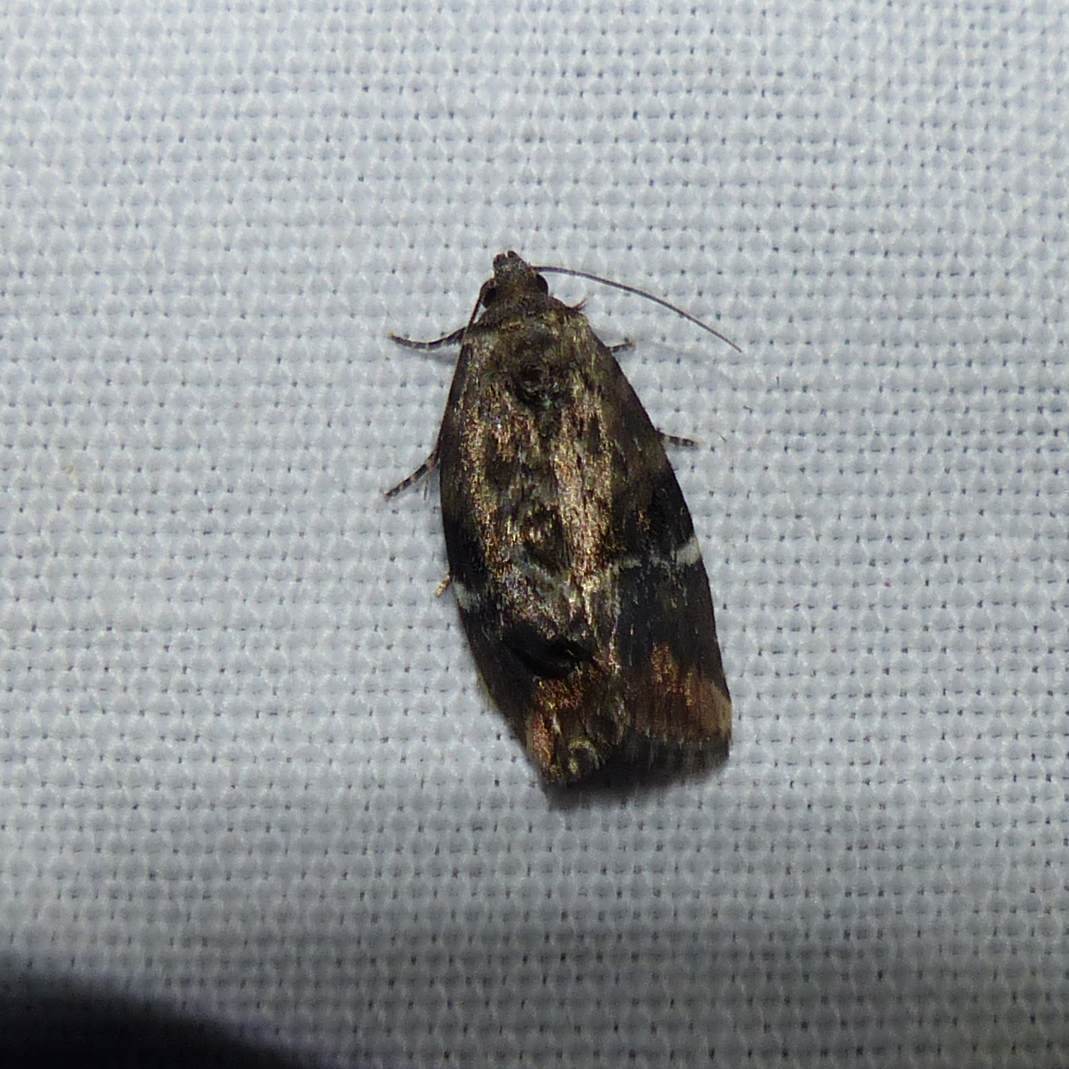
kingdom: Animalia
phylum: Arthropoda
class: Insecta
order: Lepidoptera
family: Noctuidae
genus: Elaphria
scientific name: Elaphria versicolor
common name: Fir harlequin
